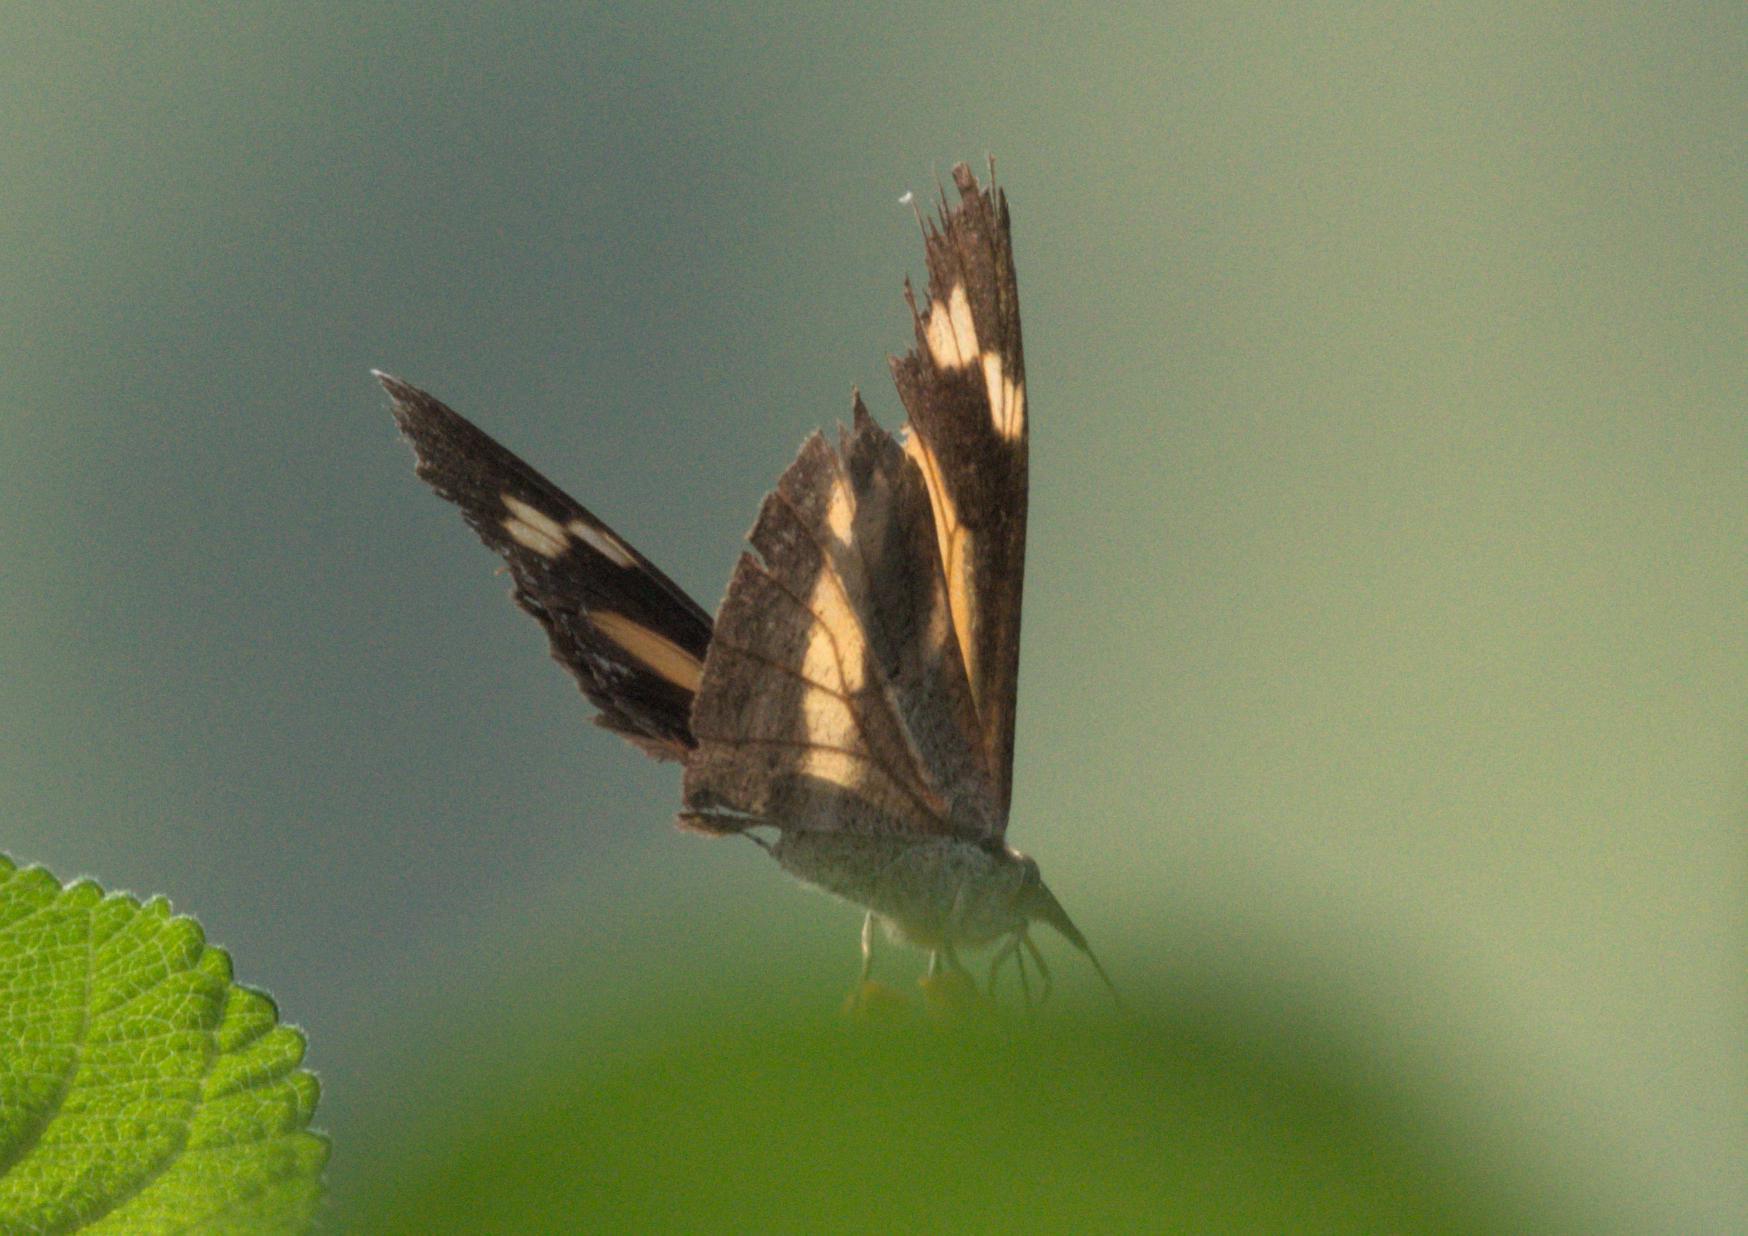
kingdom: Animalia
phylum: Arthropoda
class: Insecta
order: Lepidoptera
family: Nymphalidae
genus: Libythea
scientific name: Libythea myrrha
